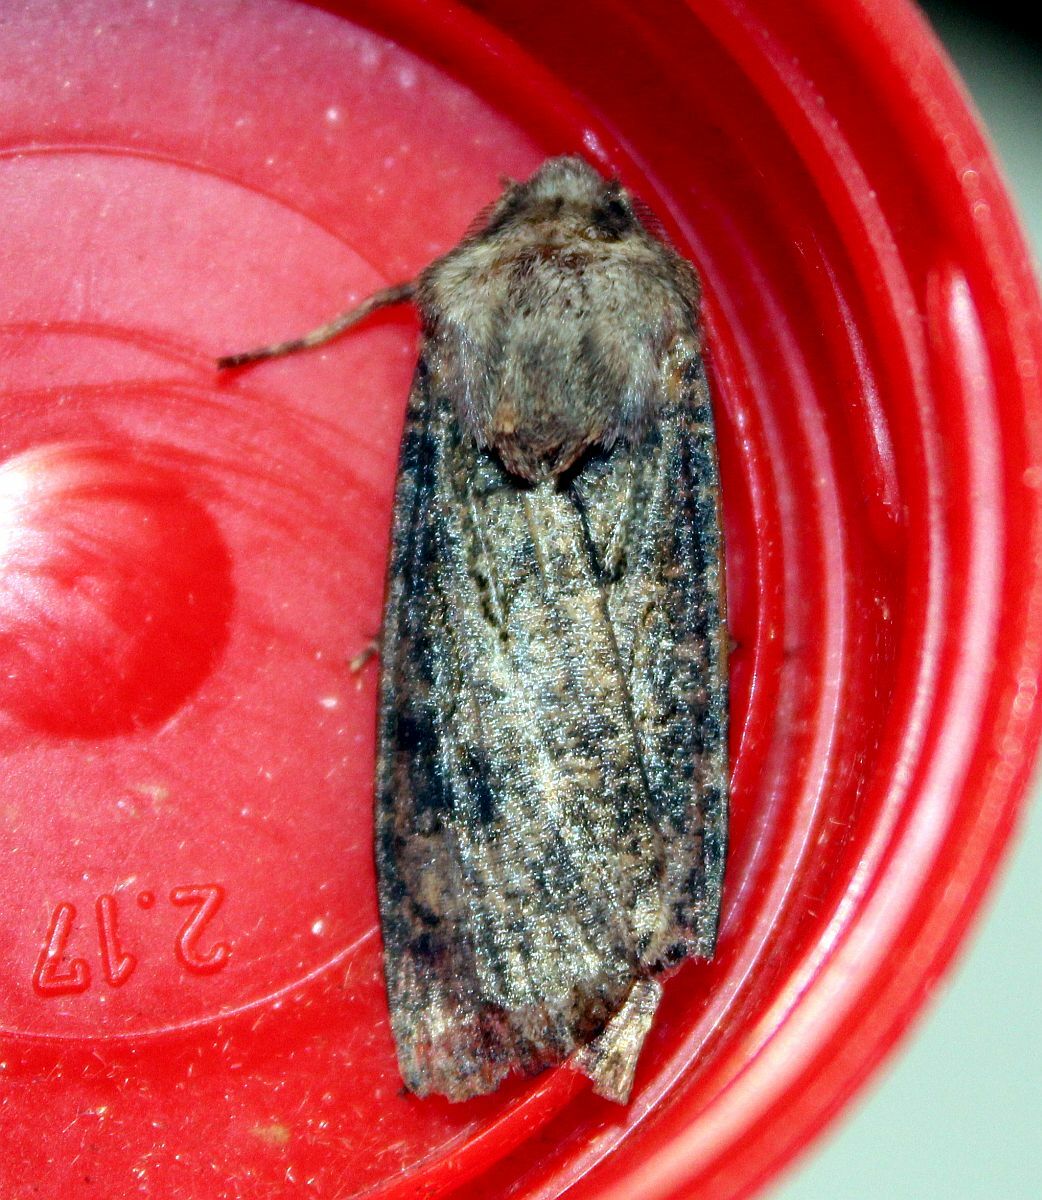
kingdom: Animalia
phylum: Arthropoda
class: Insecta
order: Lepidoptera
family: Noctuidae
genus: Agrotis
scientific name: Agrotis segetum
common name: Turnip moth
